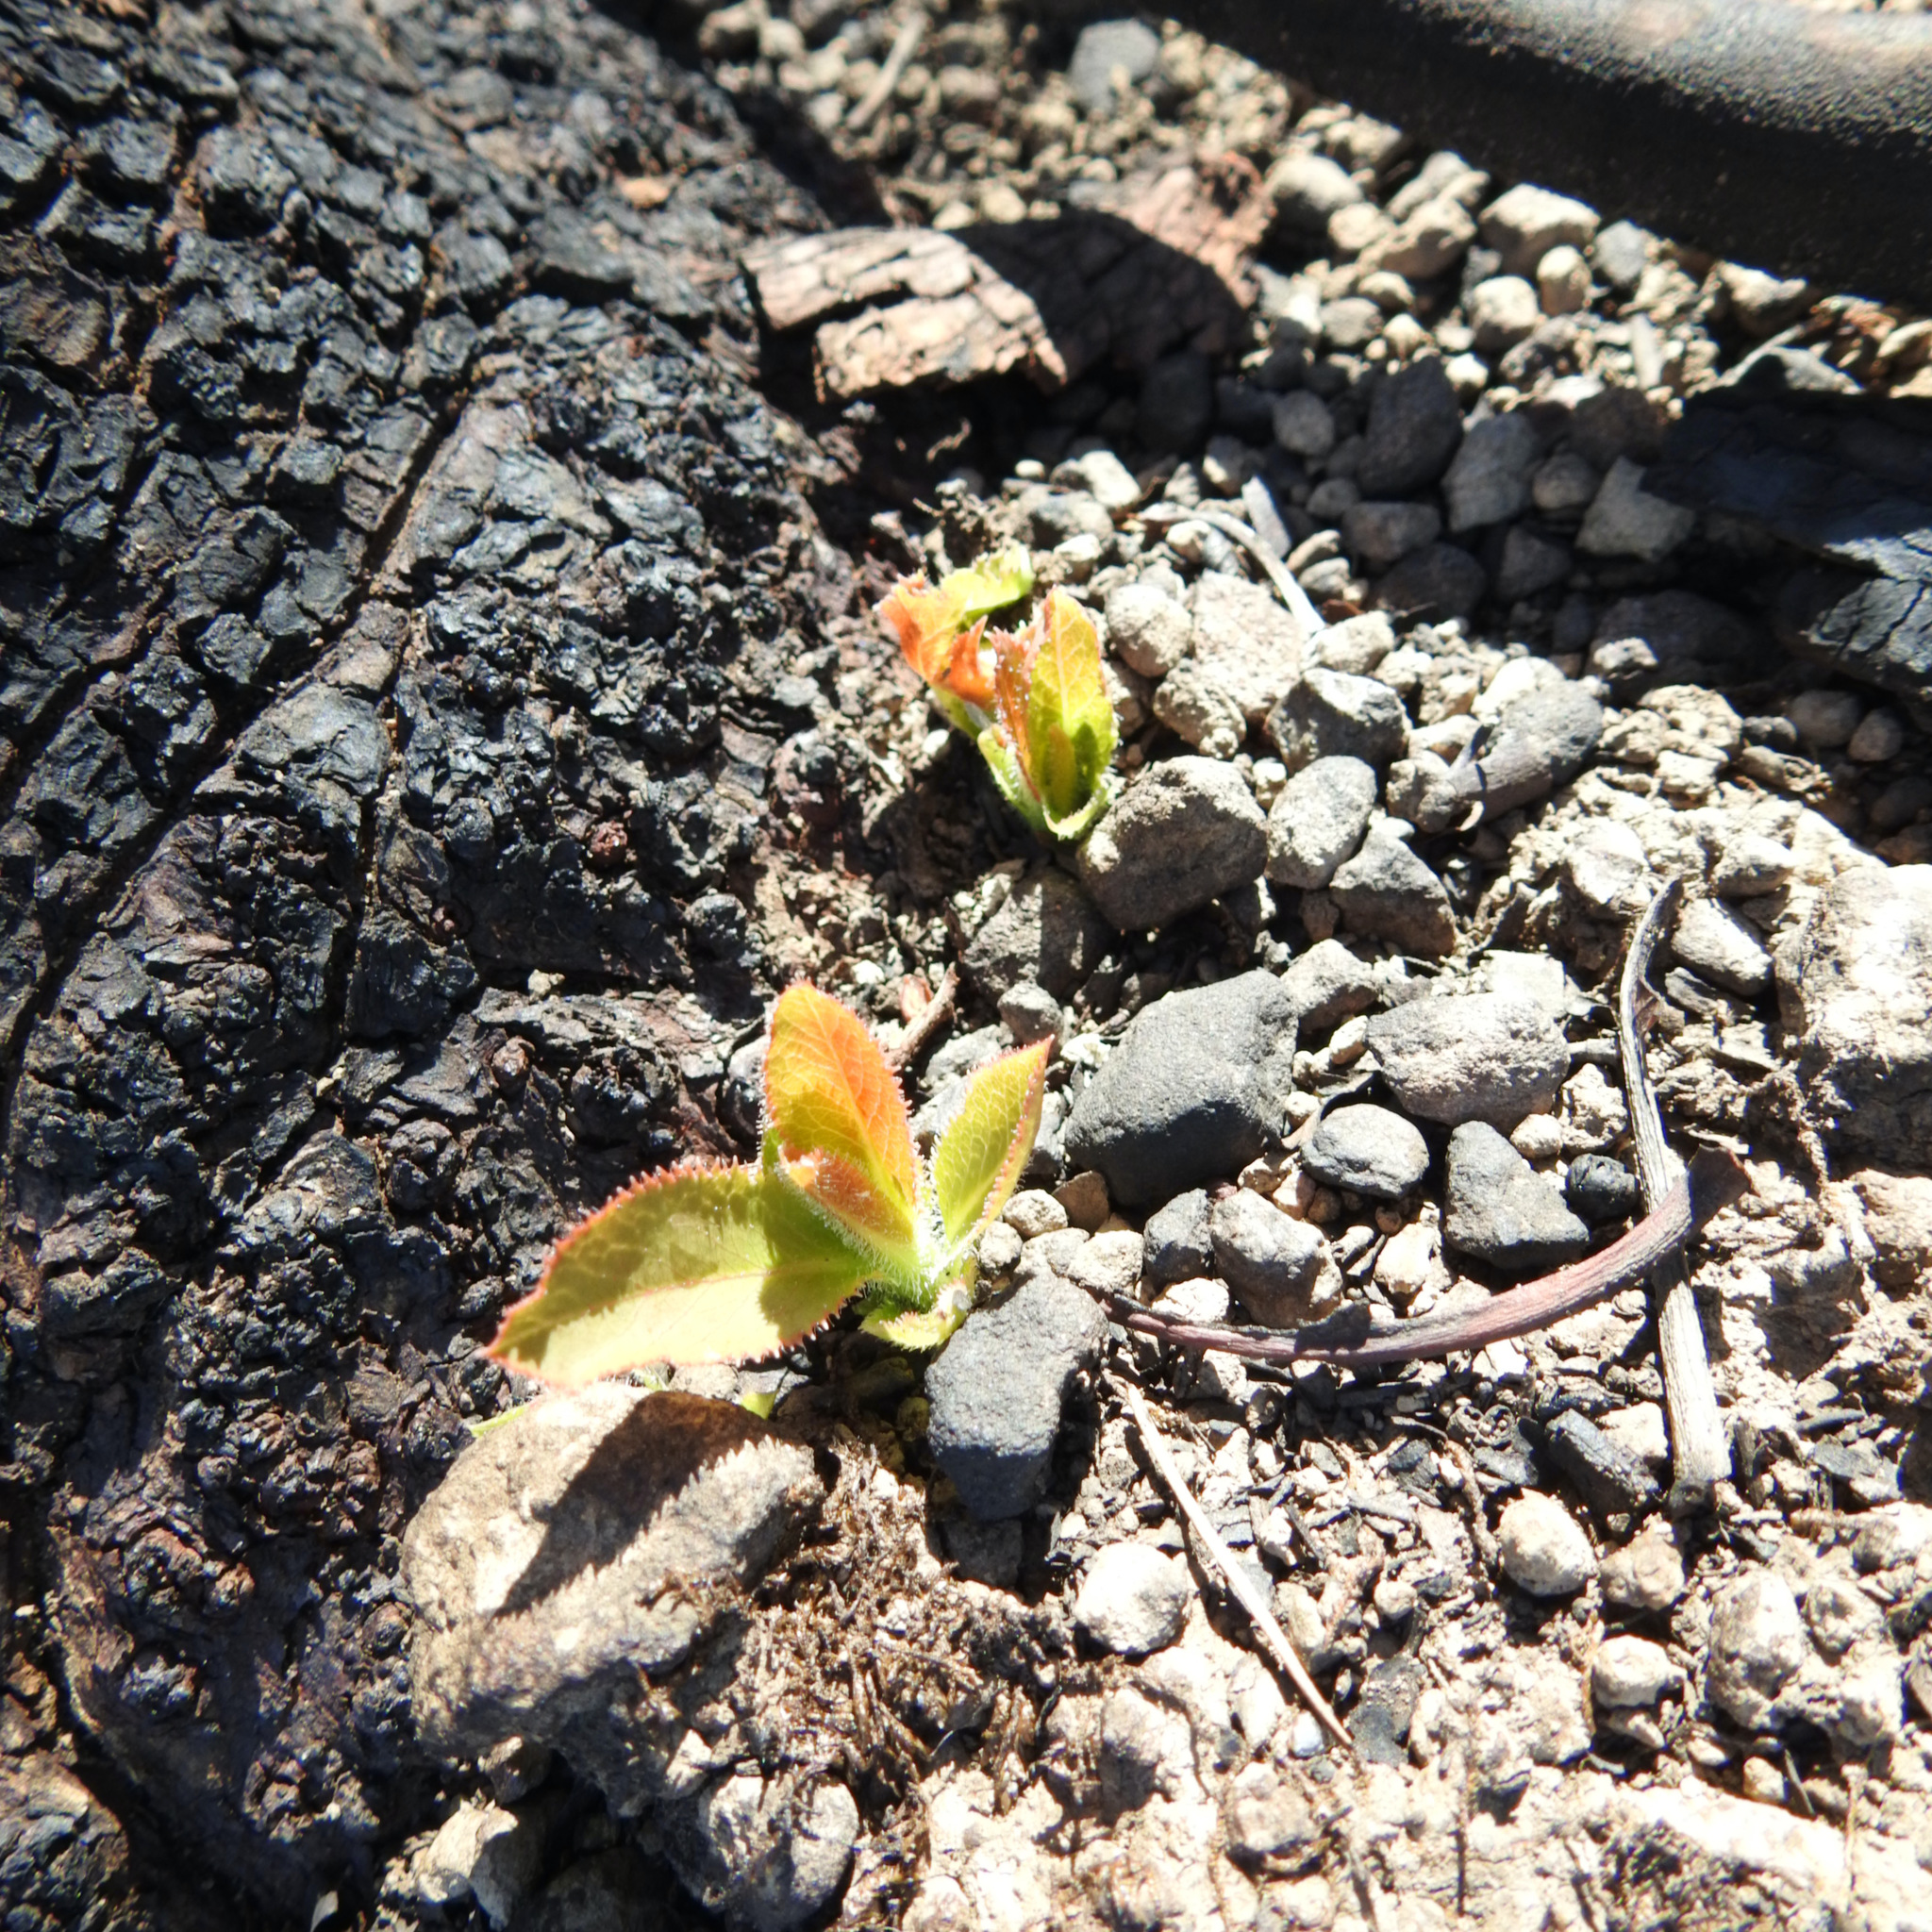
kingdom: Plantae
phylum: Tracheophyta
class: Magnoliopsida
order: Ericales
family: Ericaceae
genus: Arbutus
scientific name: Arbutus menziesii
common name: Pacific madrone
